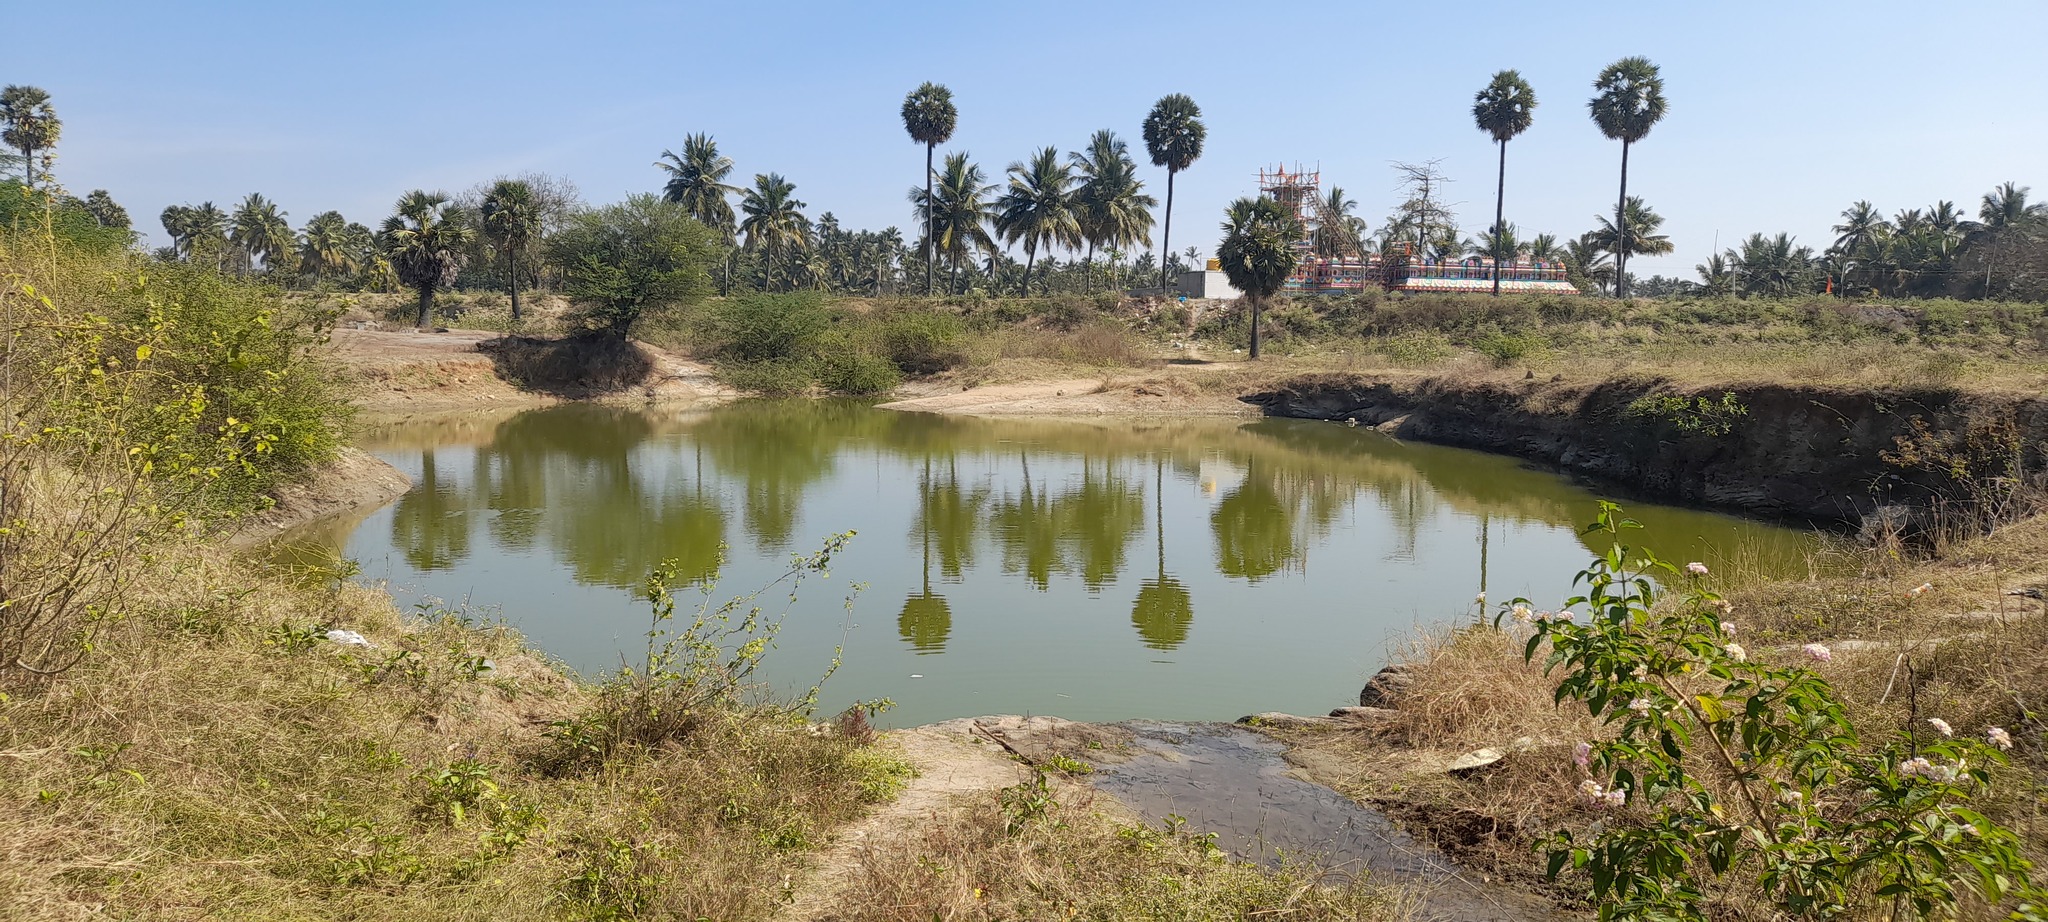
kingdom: Plantae
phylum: Tracheophyta
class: Liliopsida
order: Arecales
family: Arecaceae
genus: Borassus
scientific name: Borassus flabellifer
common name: Palmyra palm
